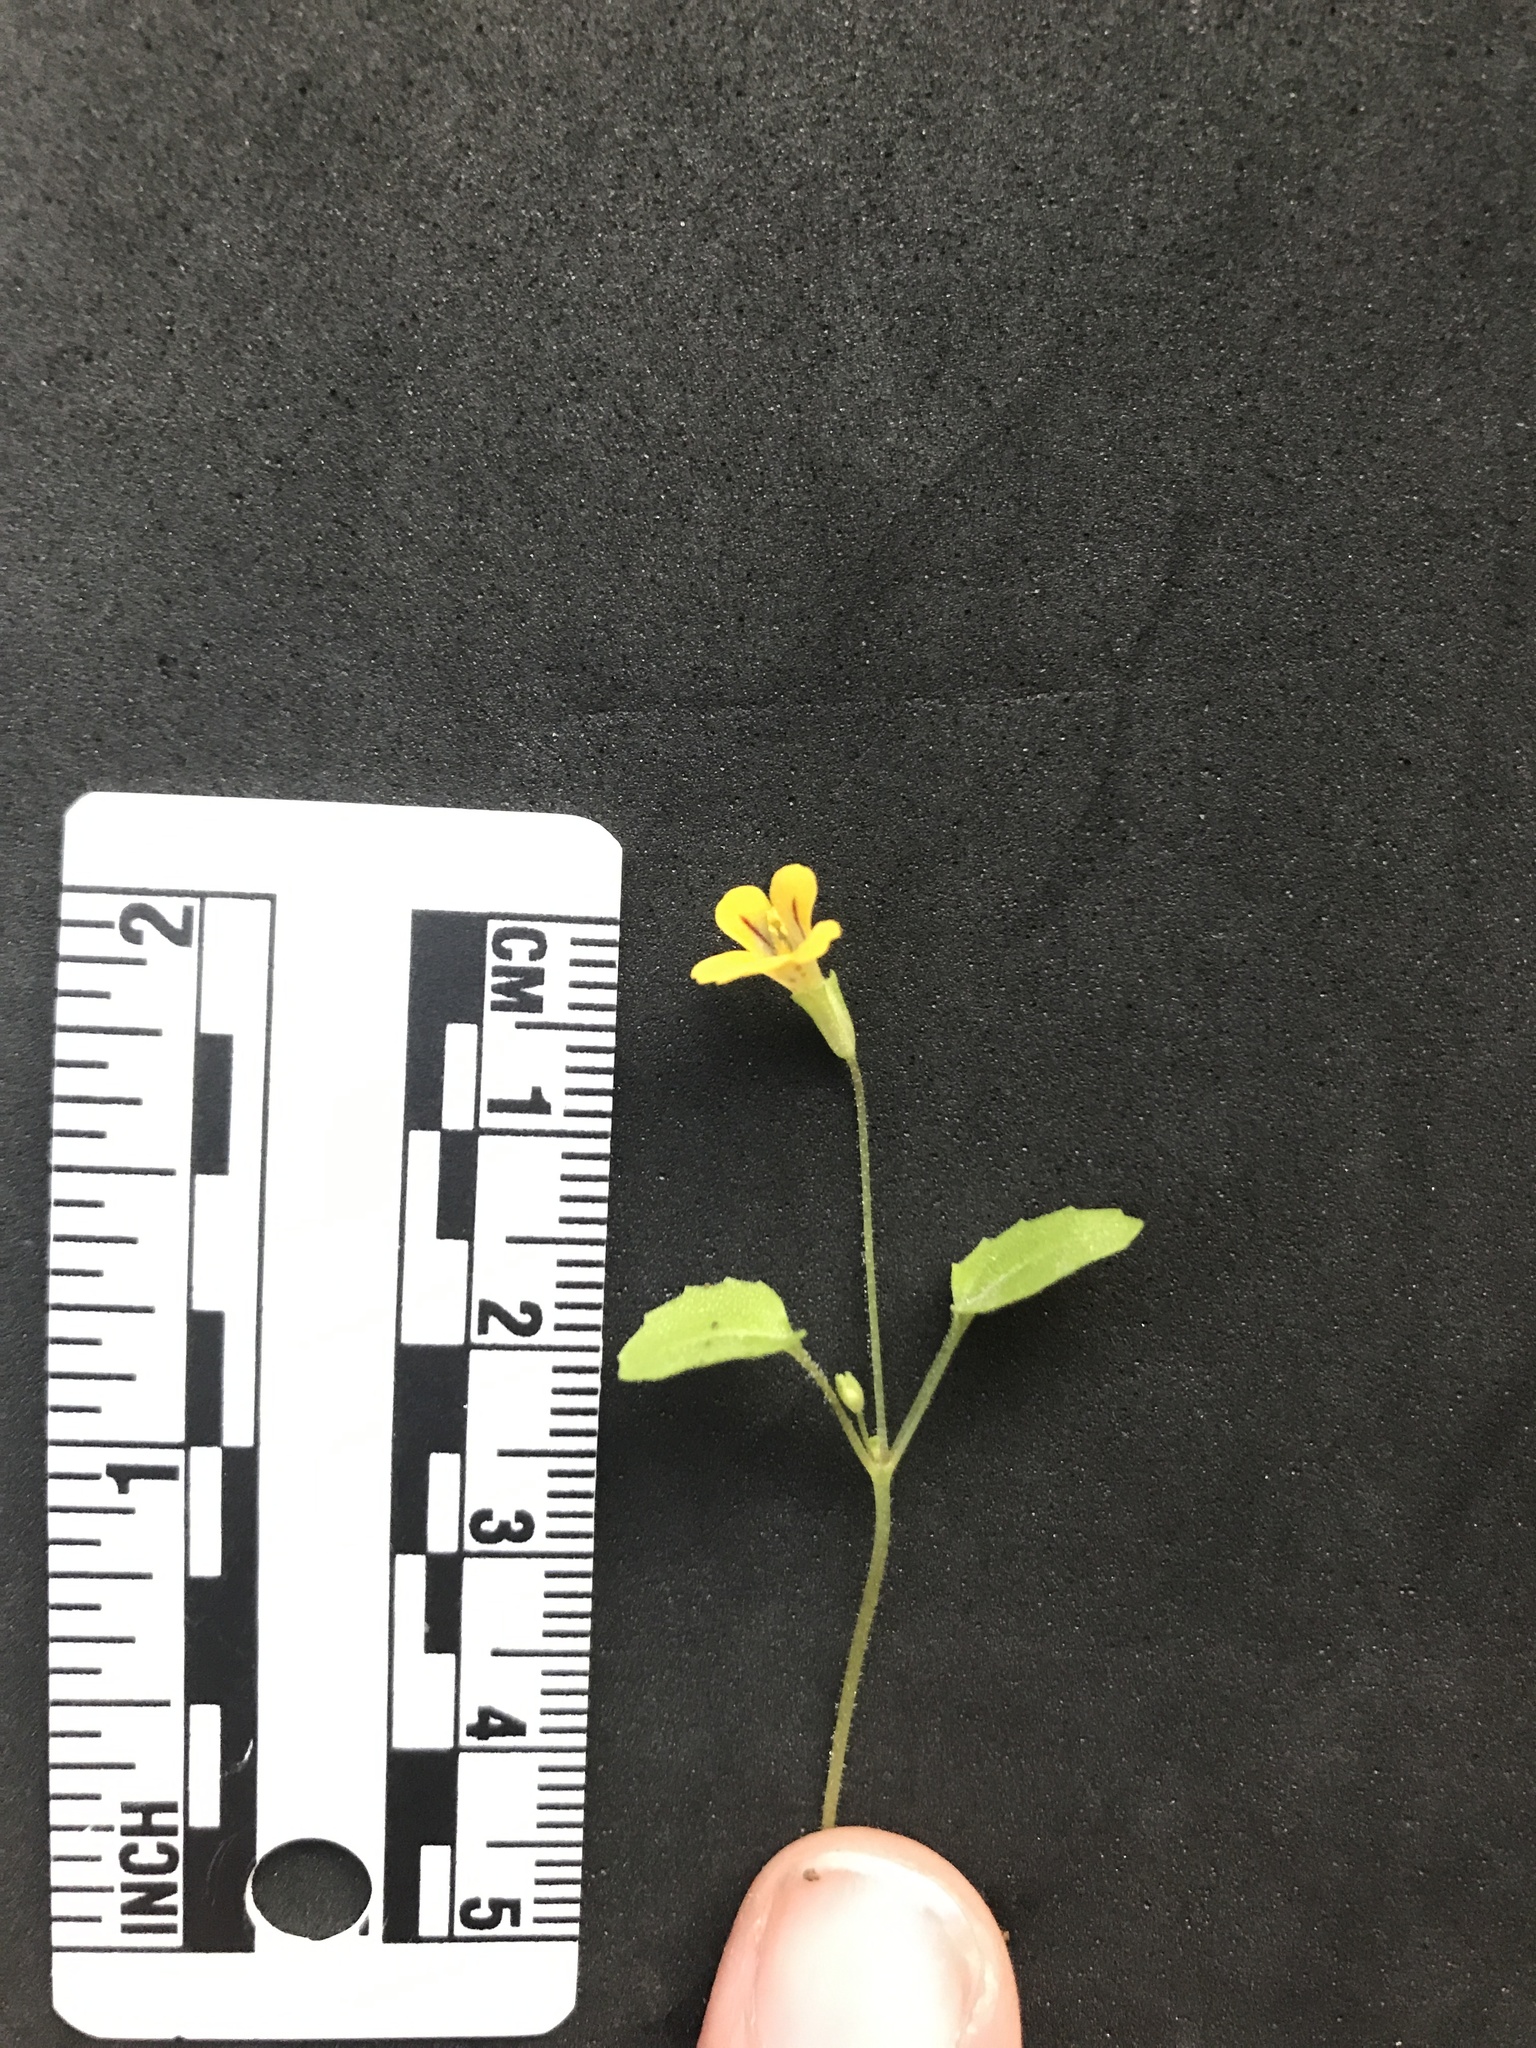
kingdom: Plantae
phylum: Tracheophyta
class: Magnoliopsida
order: Lamiales
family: Phrymaceae
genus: Erythranthe
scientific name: Erythranthe alsinoides
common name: Chickweed monkeyflower
